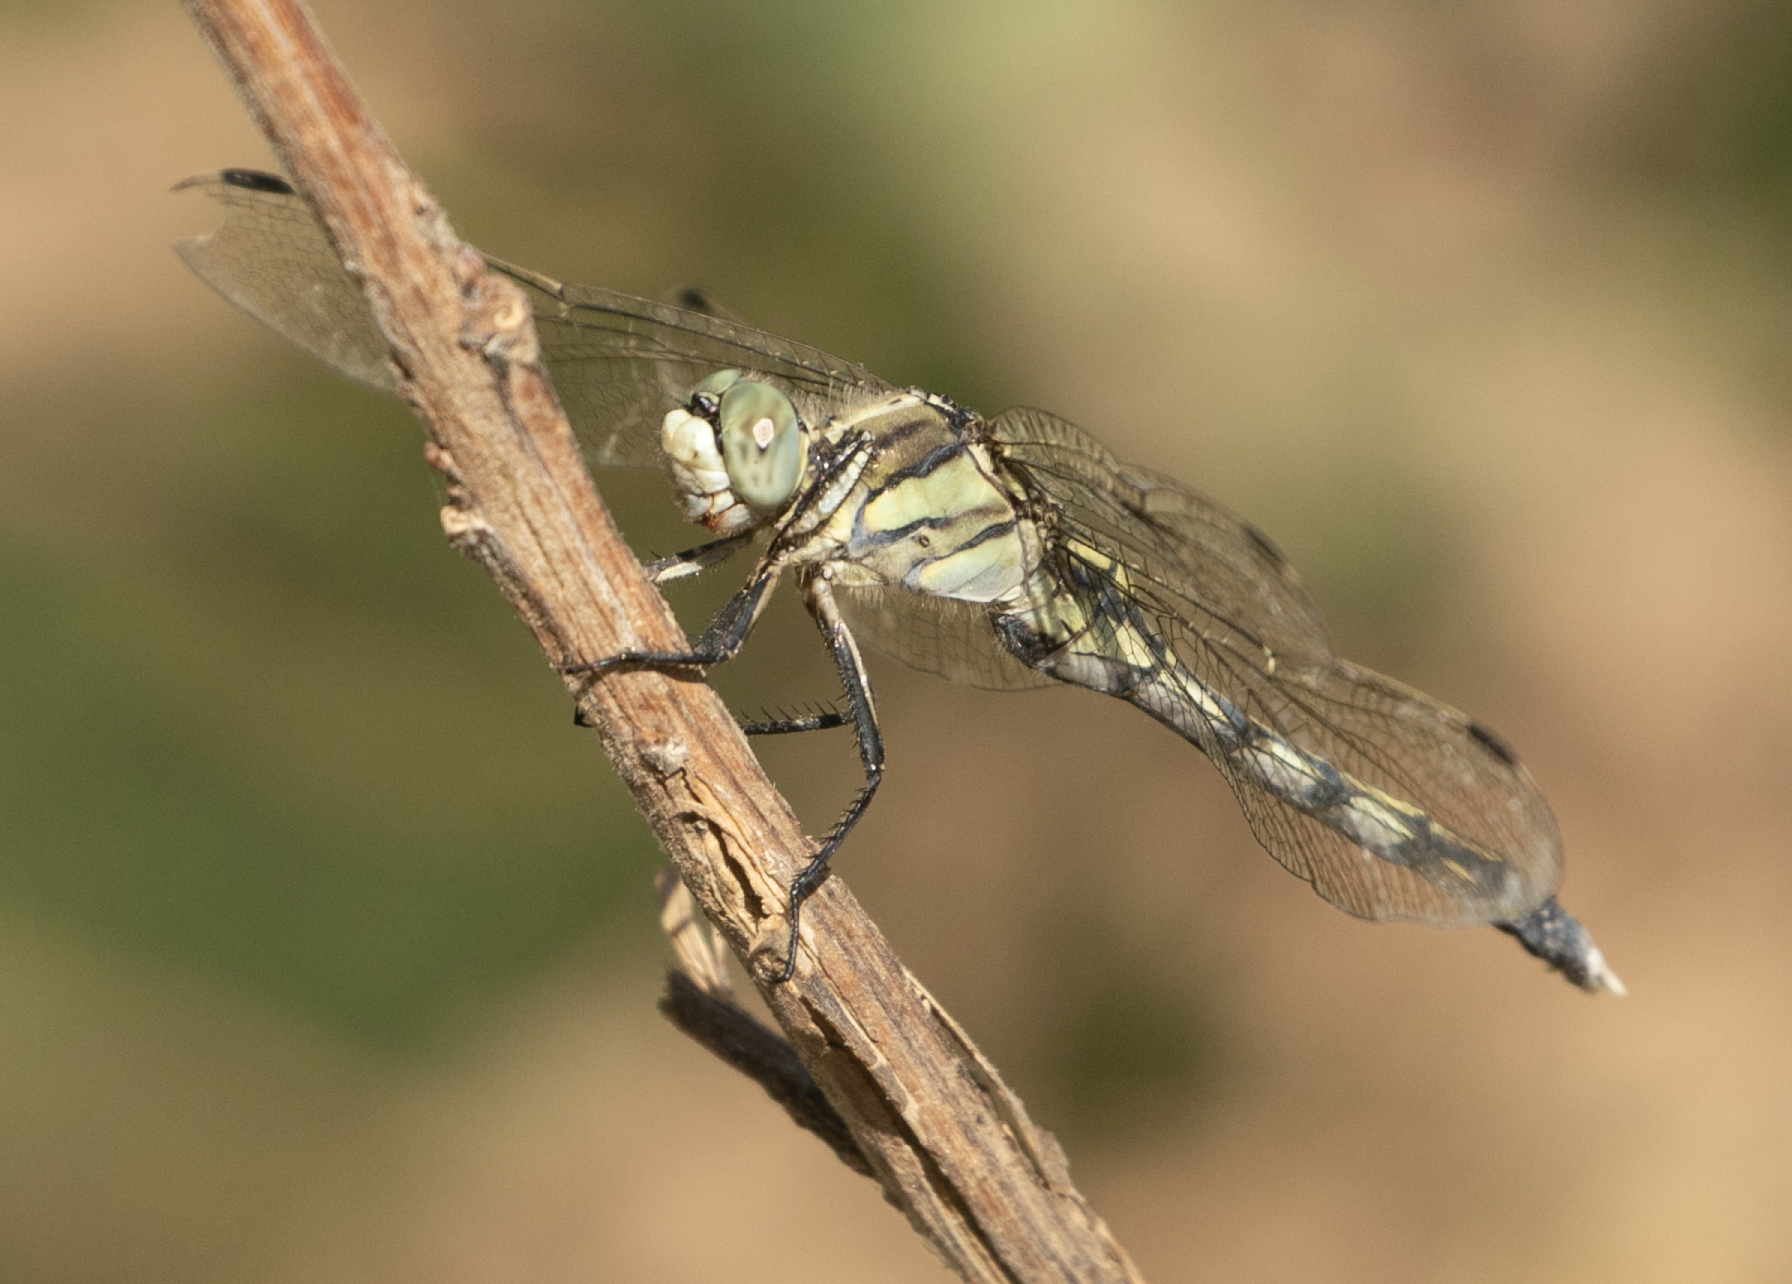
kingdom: Animalia
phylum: Arthropoda
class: Insecta
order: Odonata
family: Libellulidae
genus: Orthetrum
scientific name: Orthetrum albistylum
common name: White-tailed skimmer
